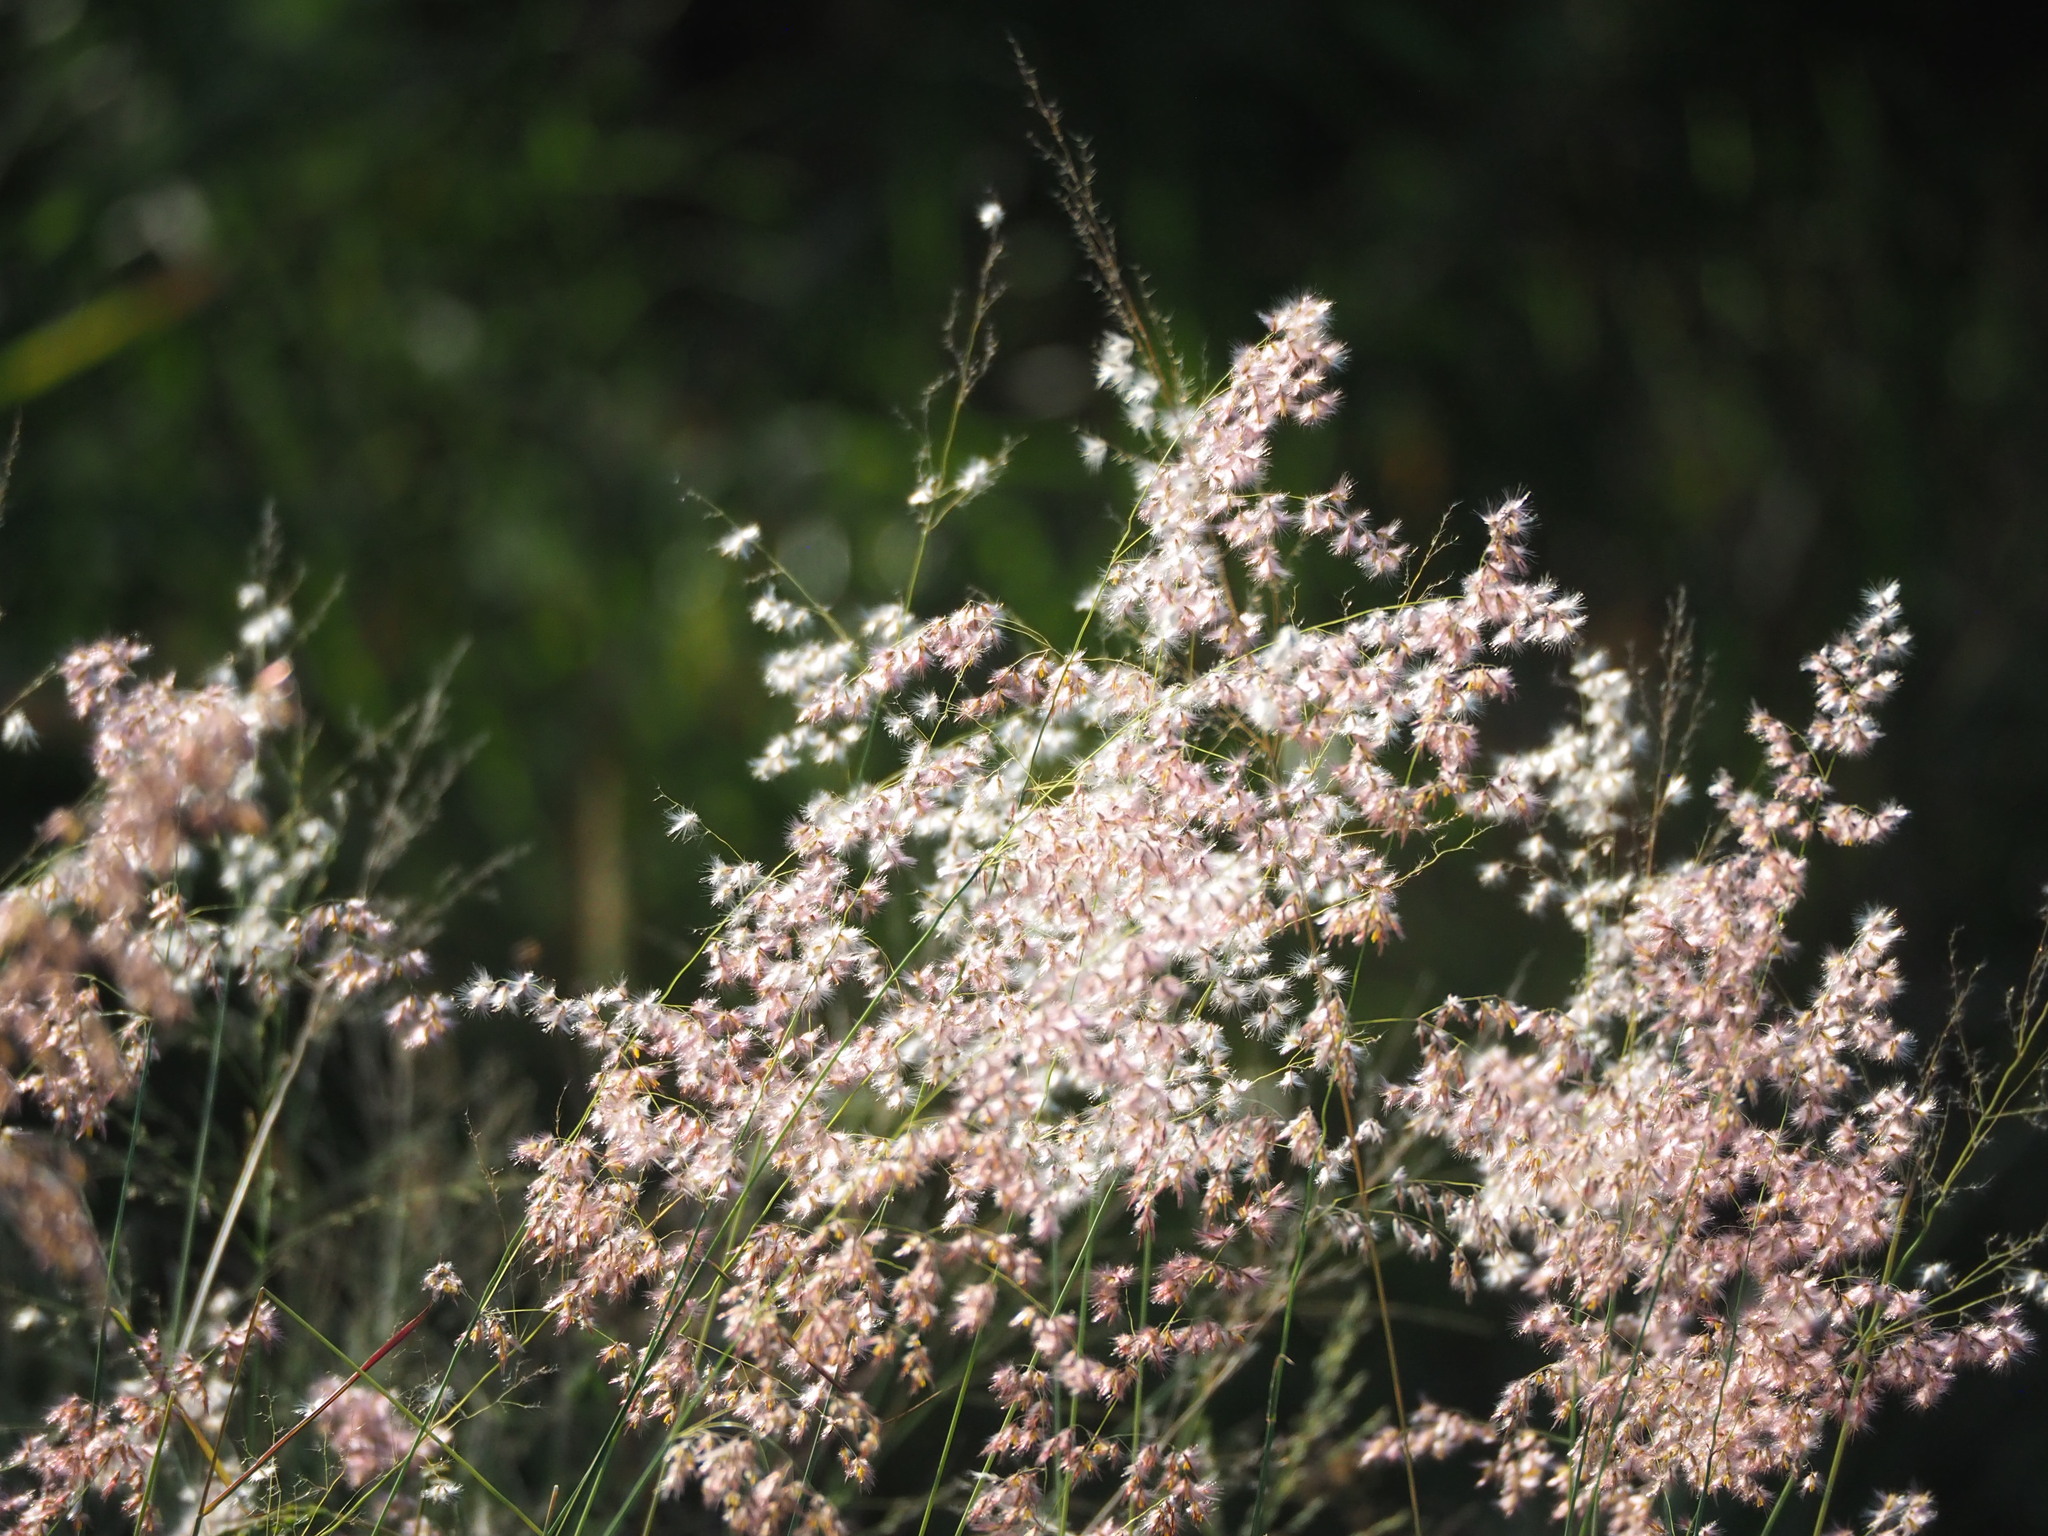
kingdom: Plantae
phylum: Tracheophyta
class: Liliopsida
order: Poales
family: Poaceae
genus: Melinis
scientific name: Melinis repens
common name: Rose natal grass
